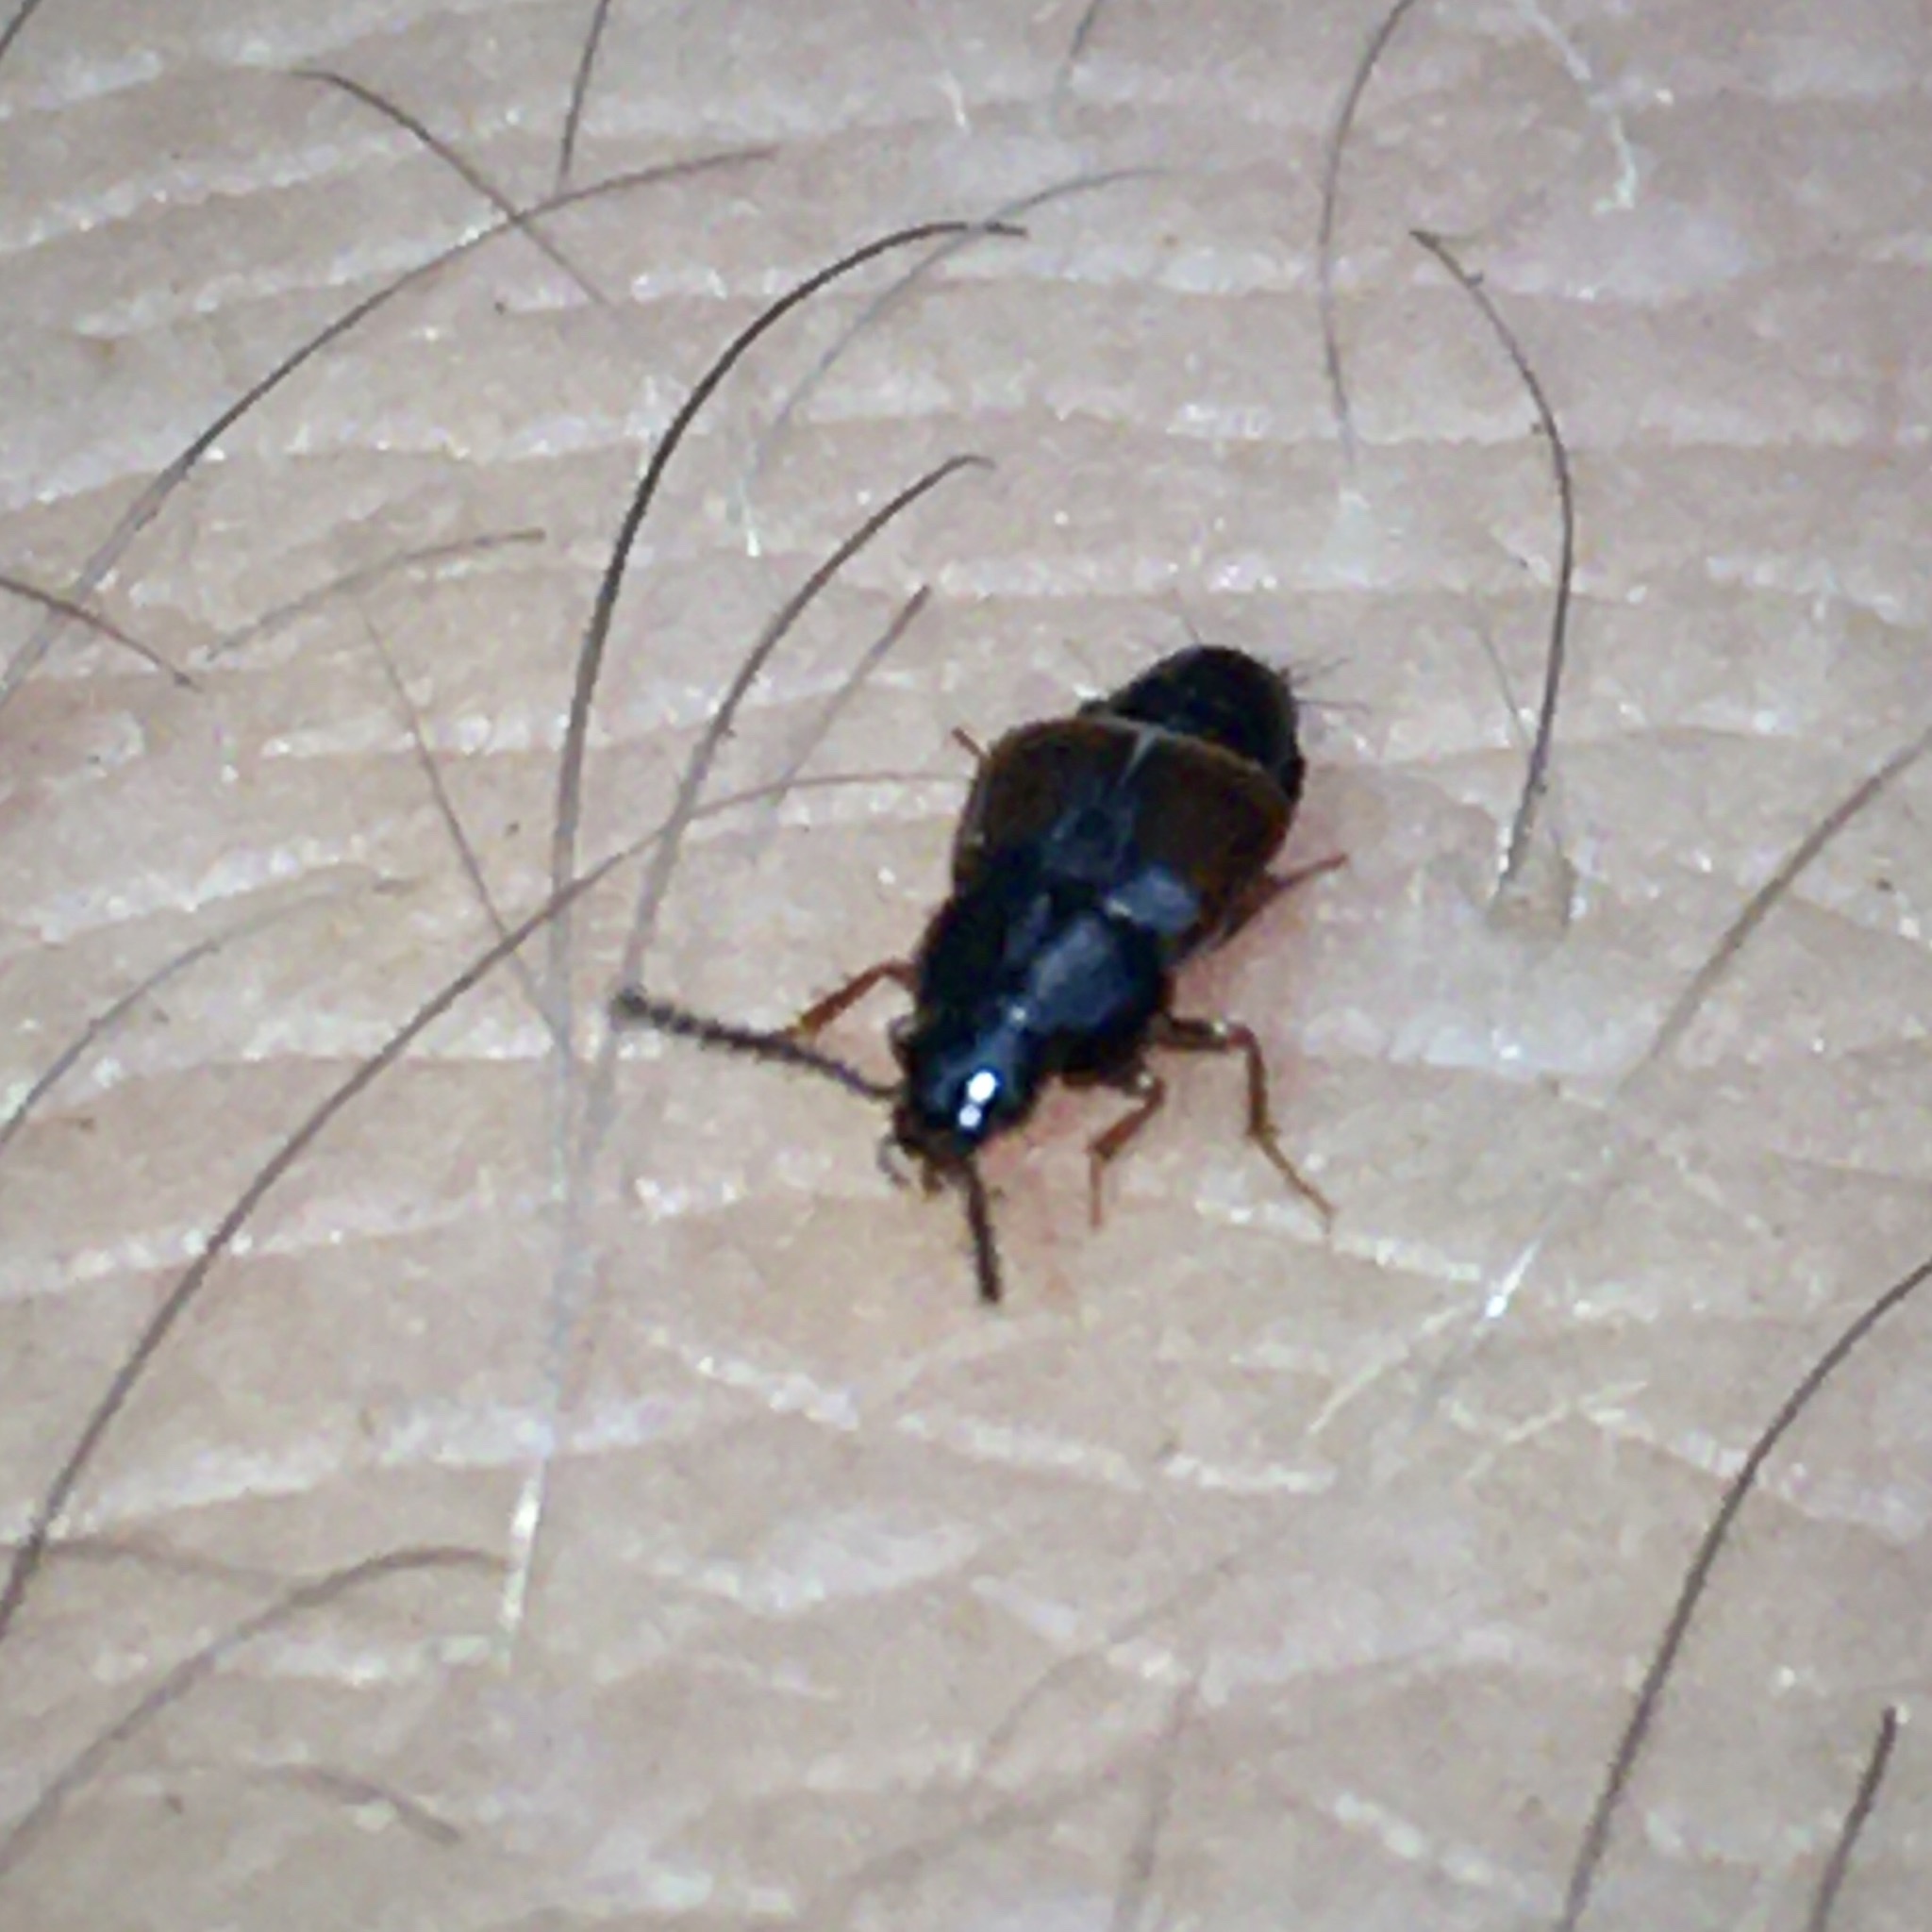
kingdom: Animalia
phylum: Arthropoda
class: Insecta
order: Coleoptera
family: Staphylinidae
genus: Tachinus
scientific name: Tachinus
